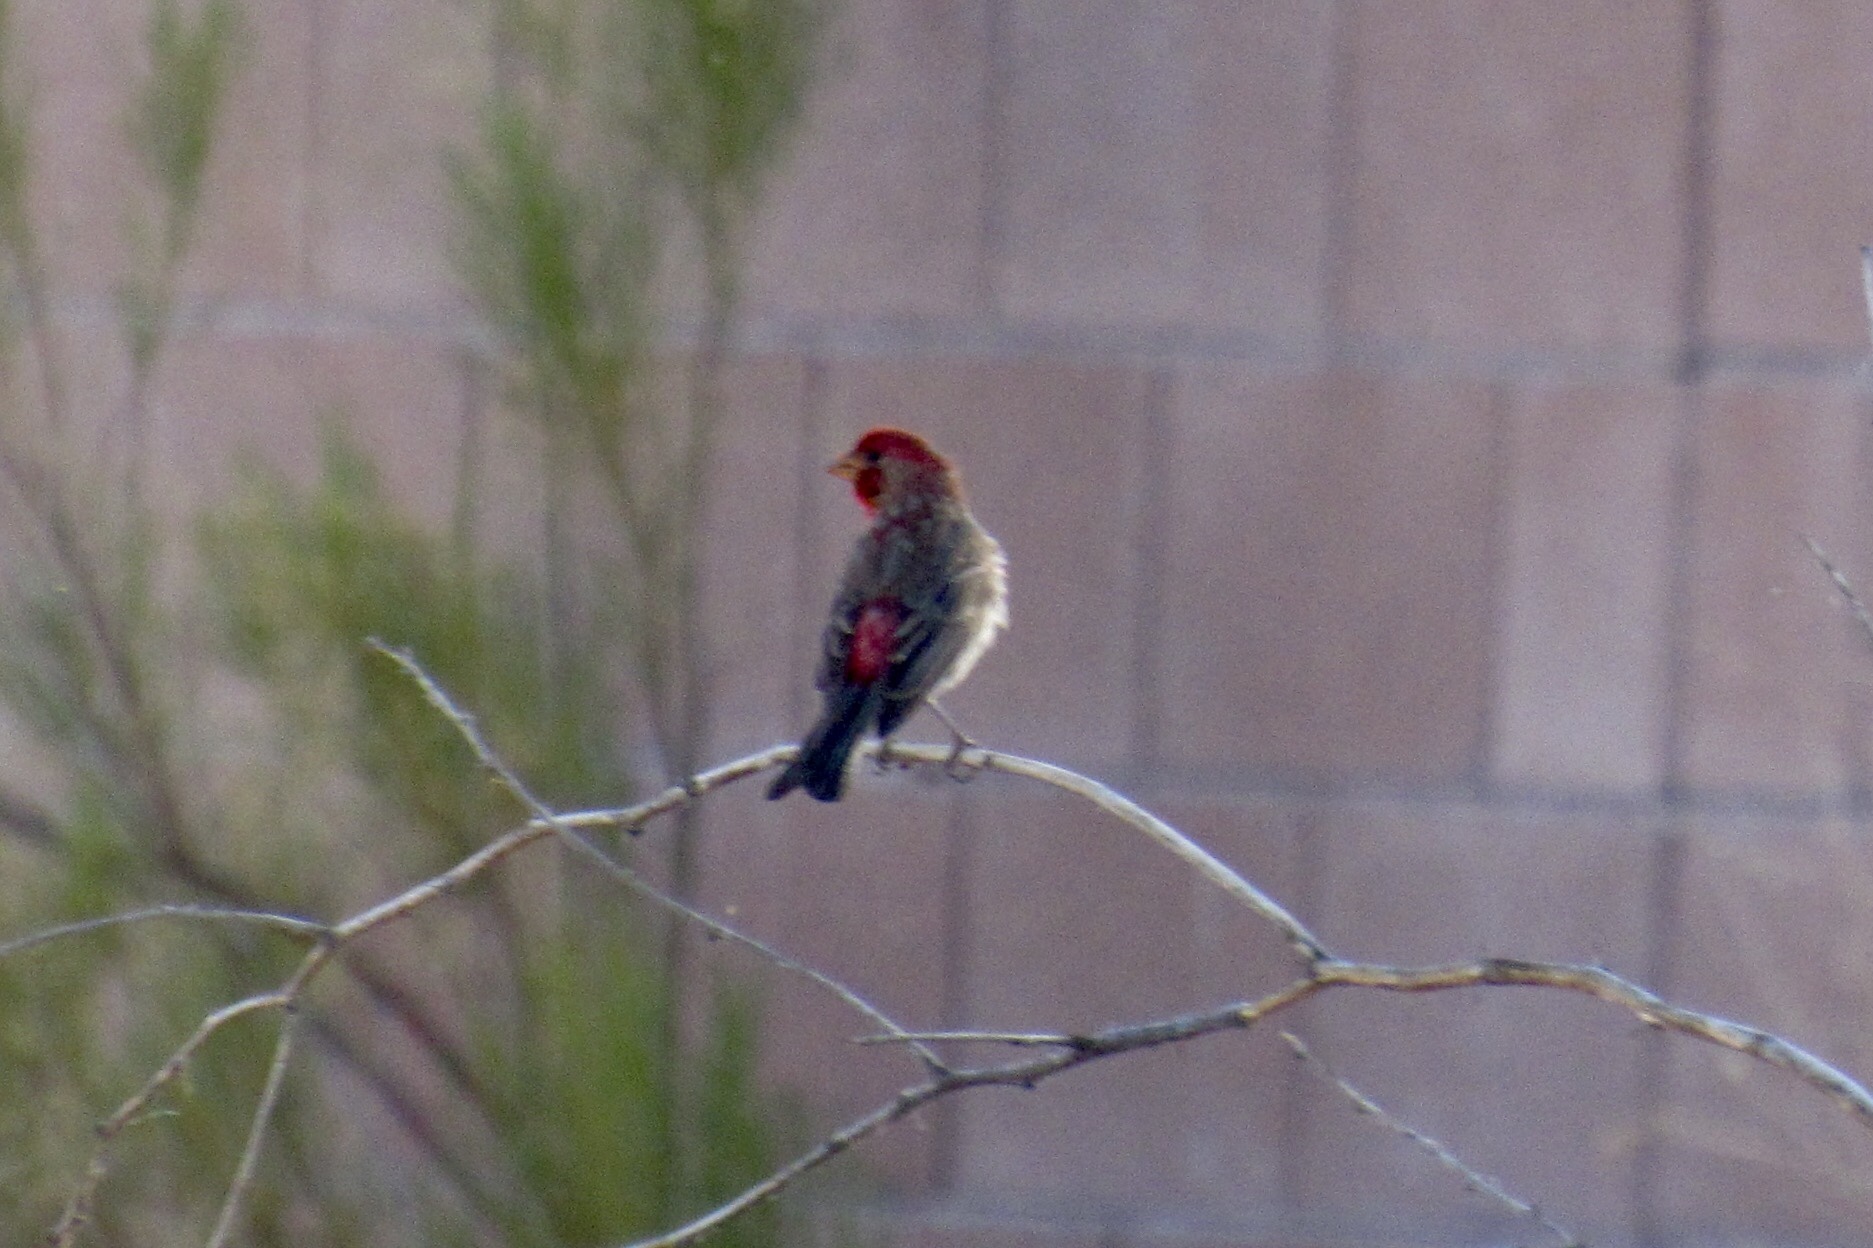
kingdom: Animalia
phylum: Chordata
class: Aves
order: Passeriformes
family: Fringillidae
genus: Haemorhous
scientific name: Haemorhous mexicanus
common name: House finch
